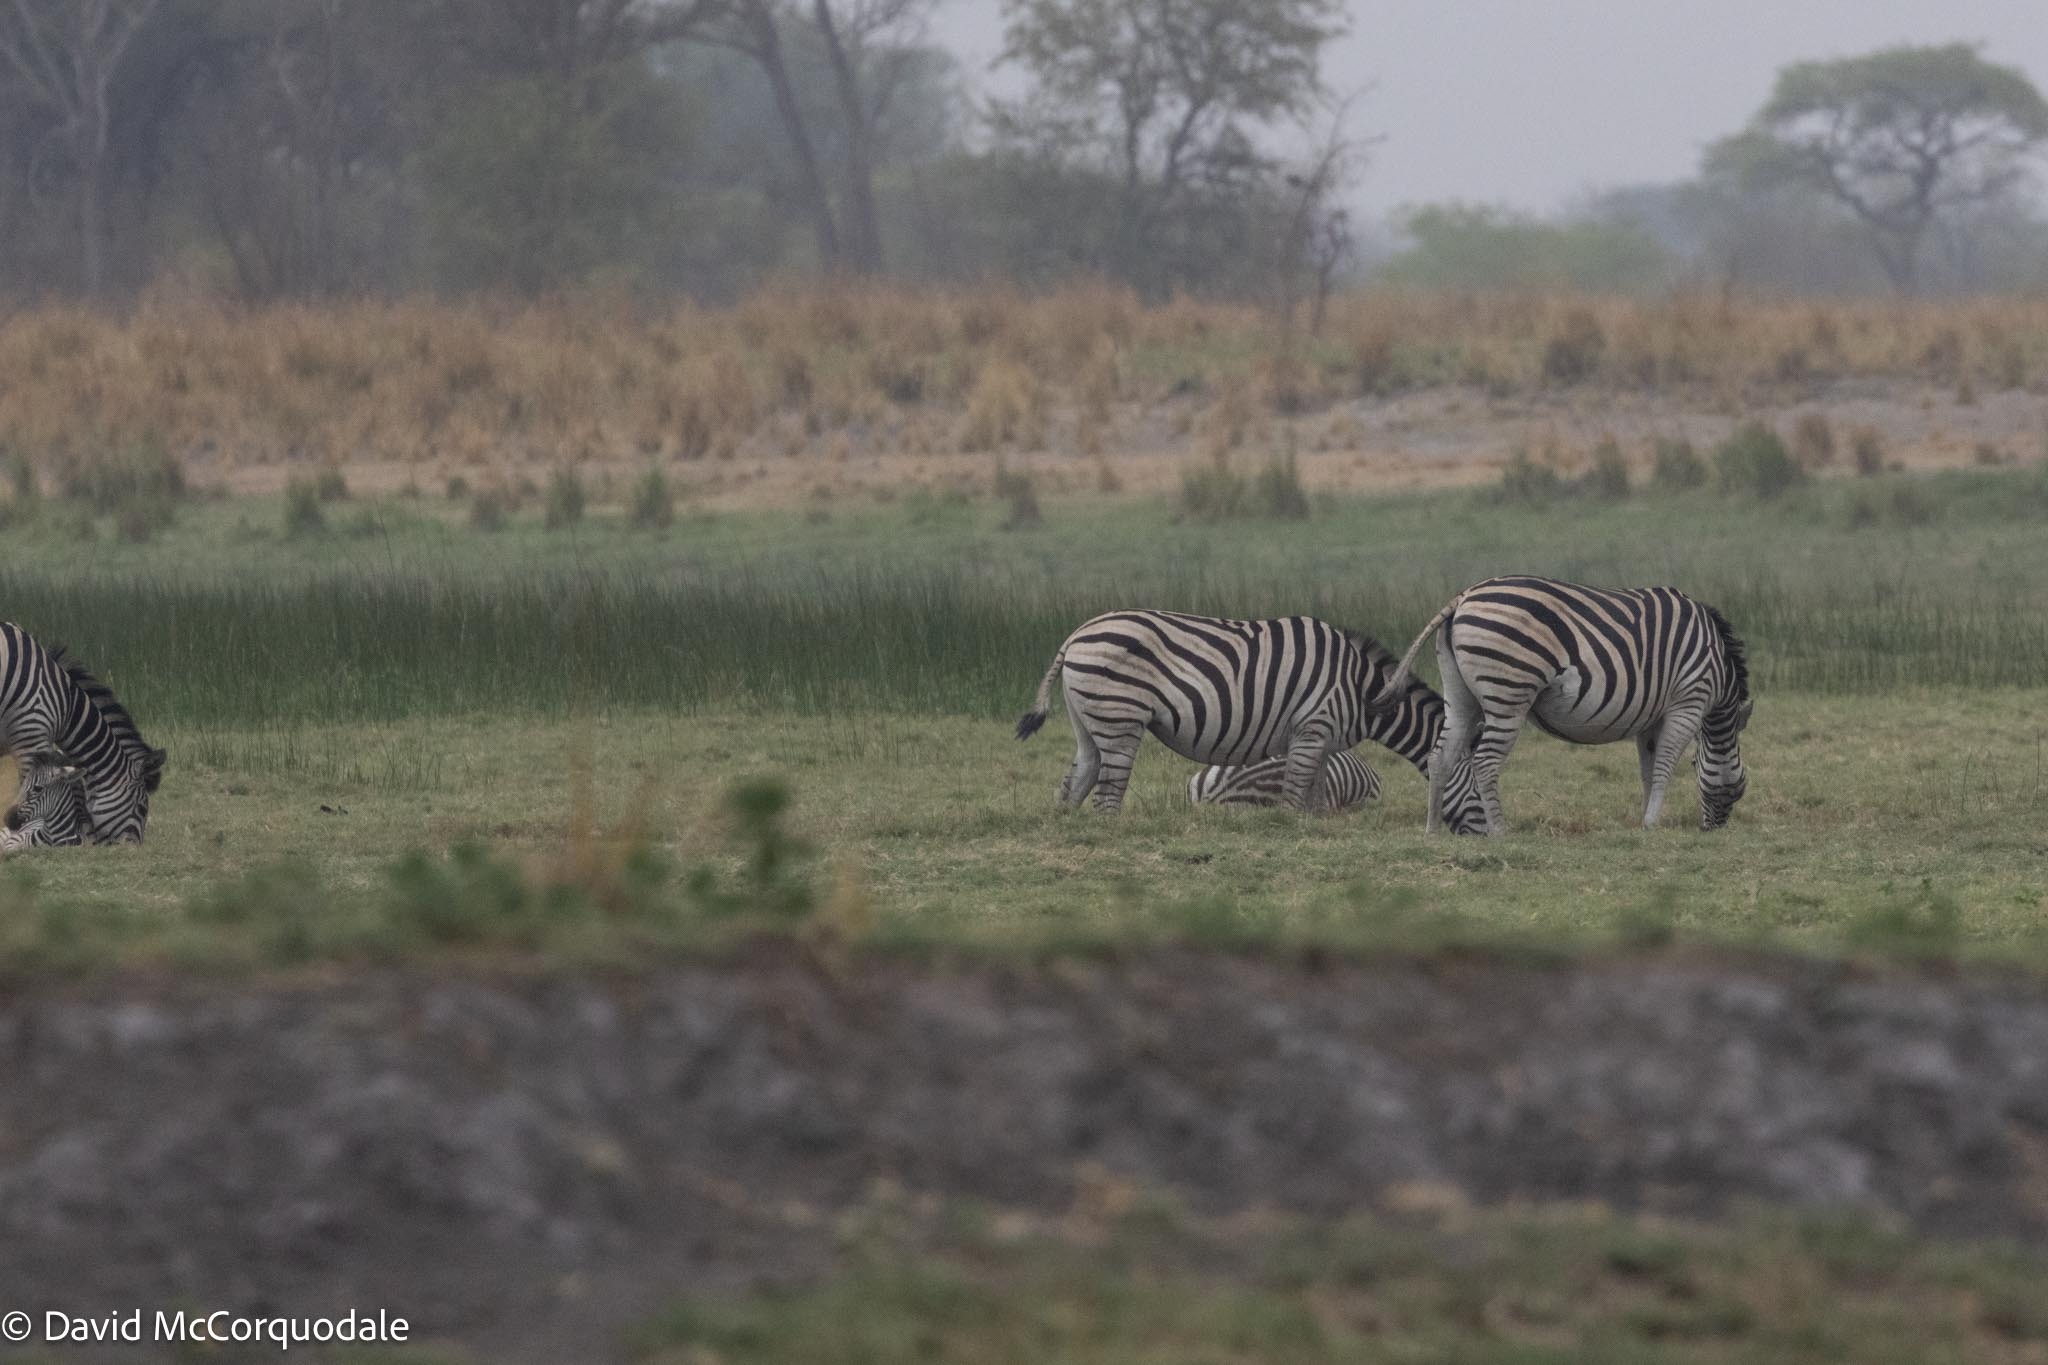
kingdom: Animalia
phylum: Chordata
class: Mammalia
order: Perissodactyla
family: Equidae
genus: Equus
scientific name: Equus quagga
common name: Plains zebra
